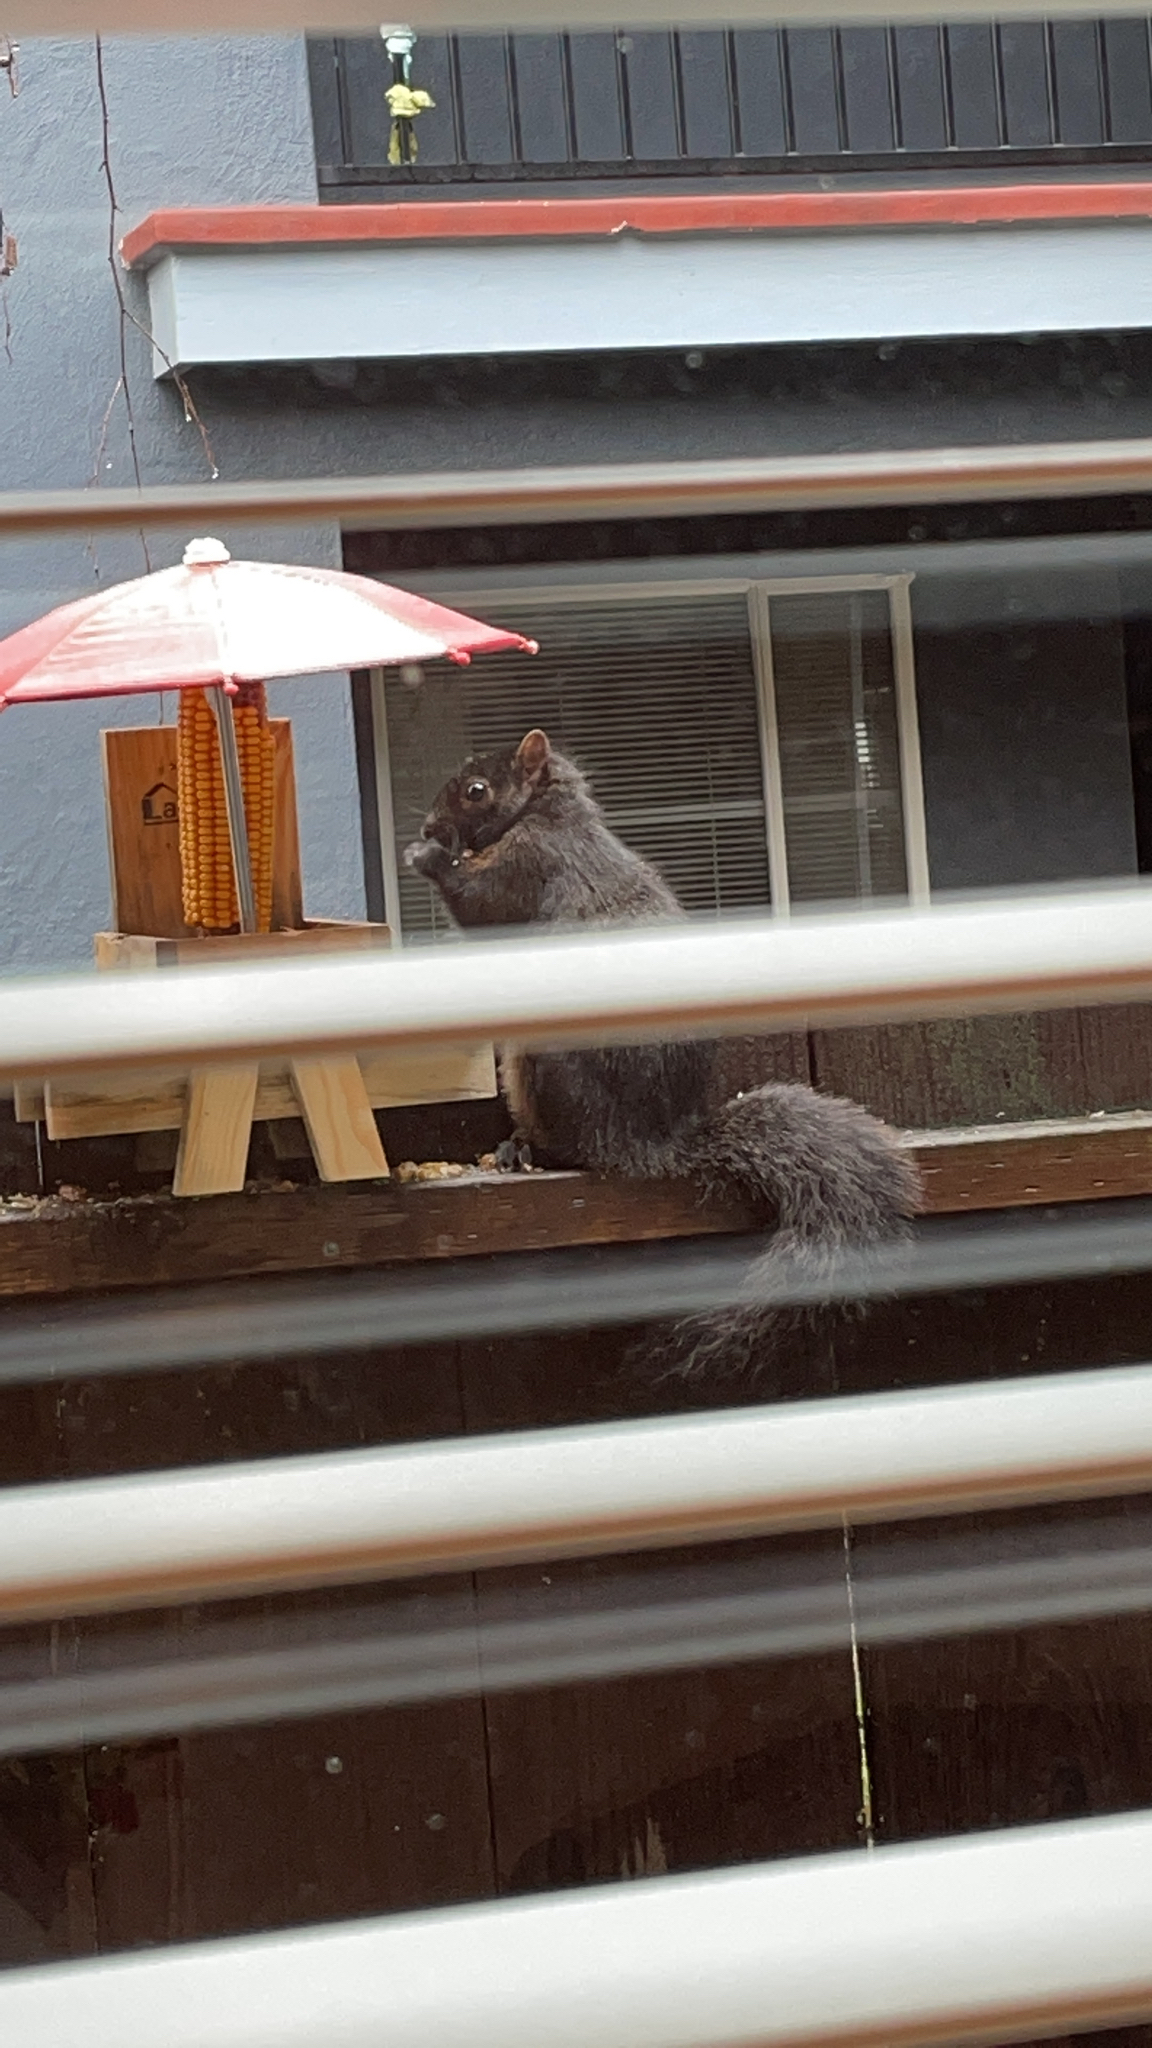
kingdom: Animalia
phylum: Chordata
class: Mammalia
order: Rodentia
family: Sciuridae
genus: Sciurus
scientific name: Sciurus carolinensis
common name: Eastern gray squirrel
